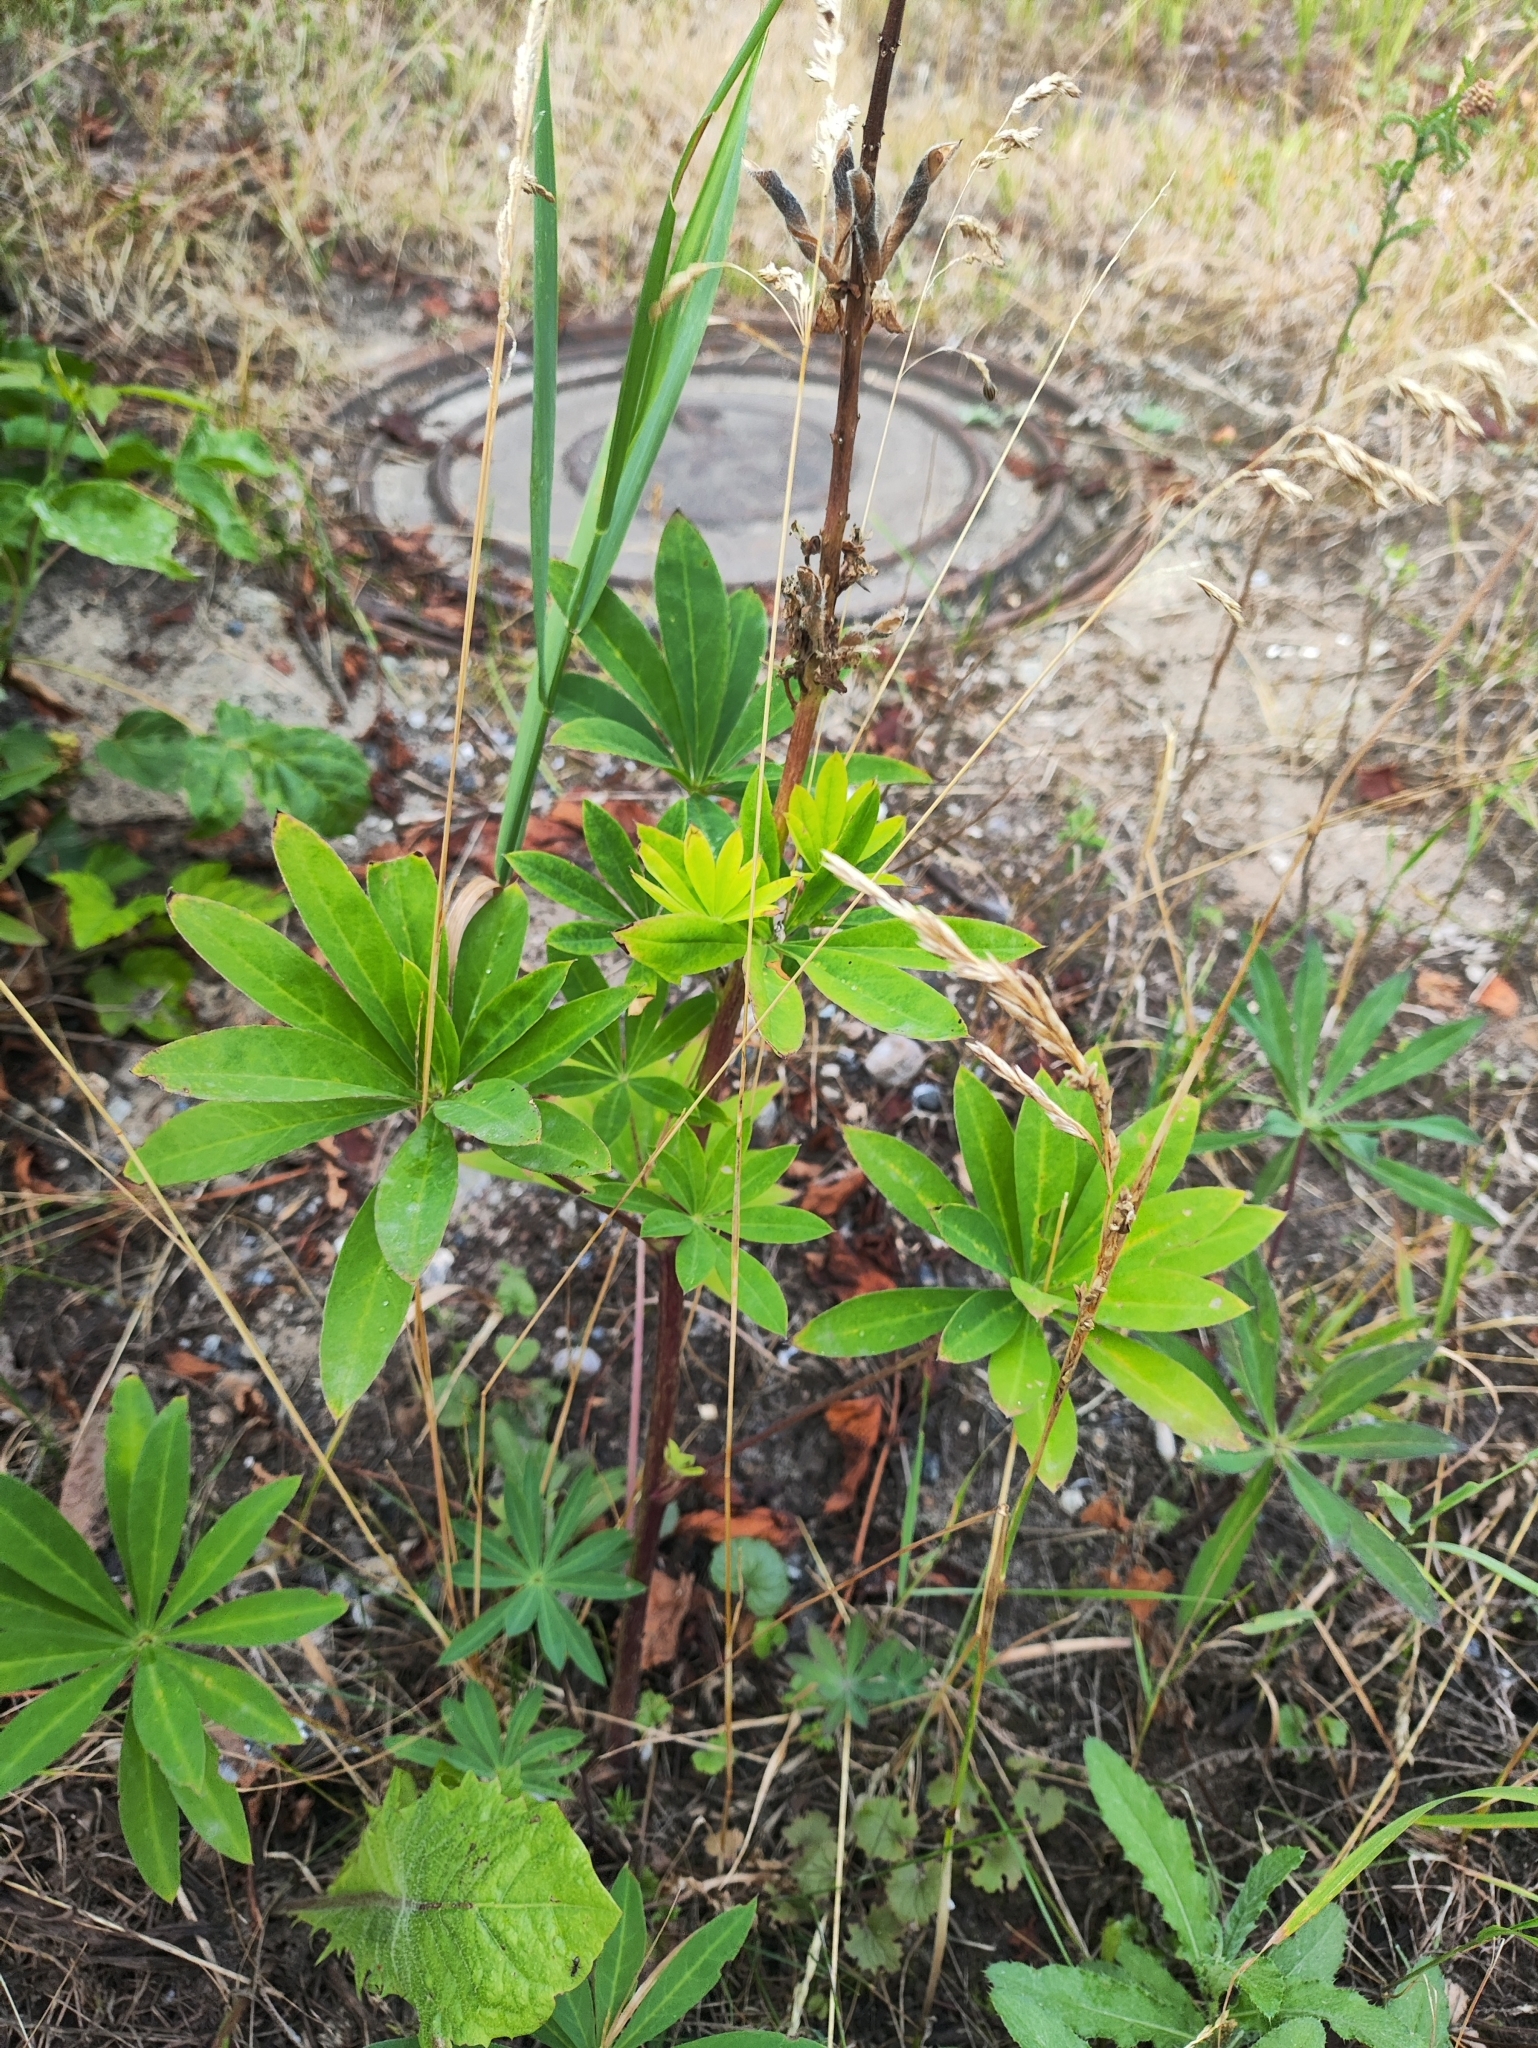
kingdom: Plantae
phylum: Tracheophyta
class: Magnoliopsida
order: Fabales
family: Fabaceae
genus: Lupinus
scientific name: Lupinus polyphyllus
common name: Garden lupin
